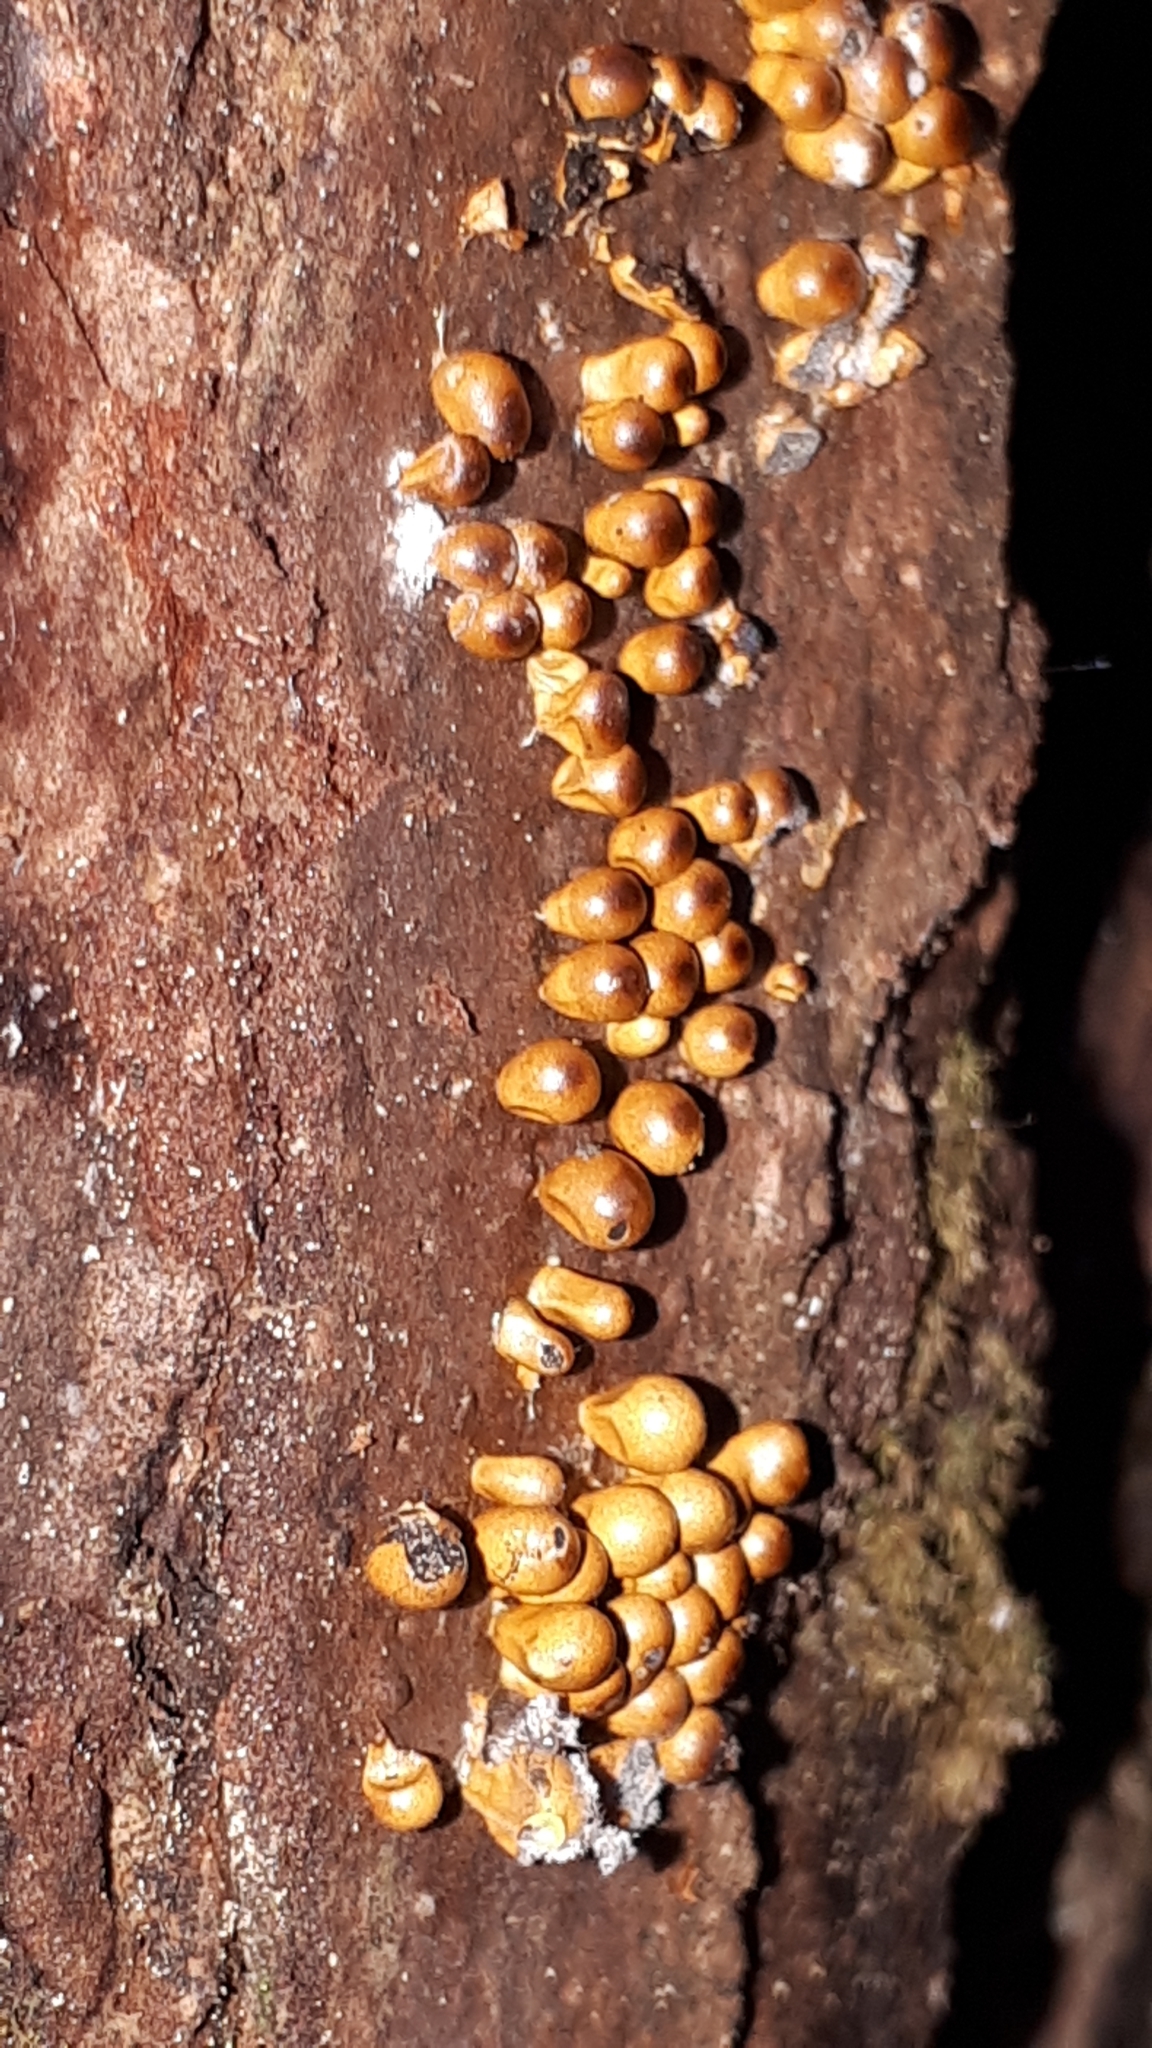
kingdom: Protozoa
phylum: Mycetozoa
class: Myxomycetes
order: Physarales
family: Physaraceae
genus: Leocarpus
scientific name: Leocarpus fragilis
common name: Insect-egg slime
